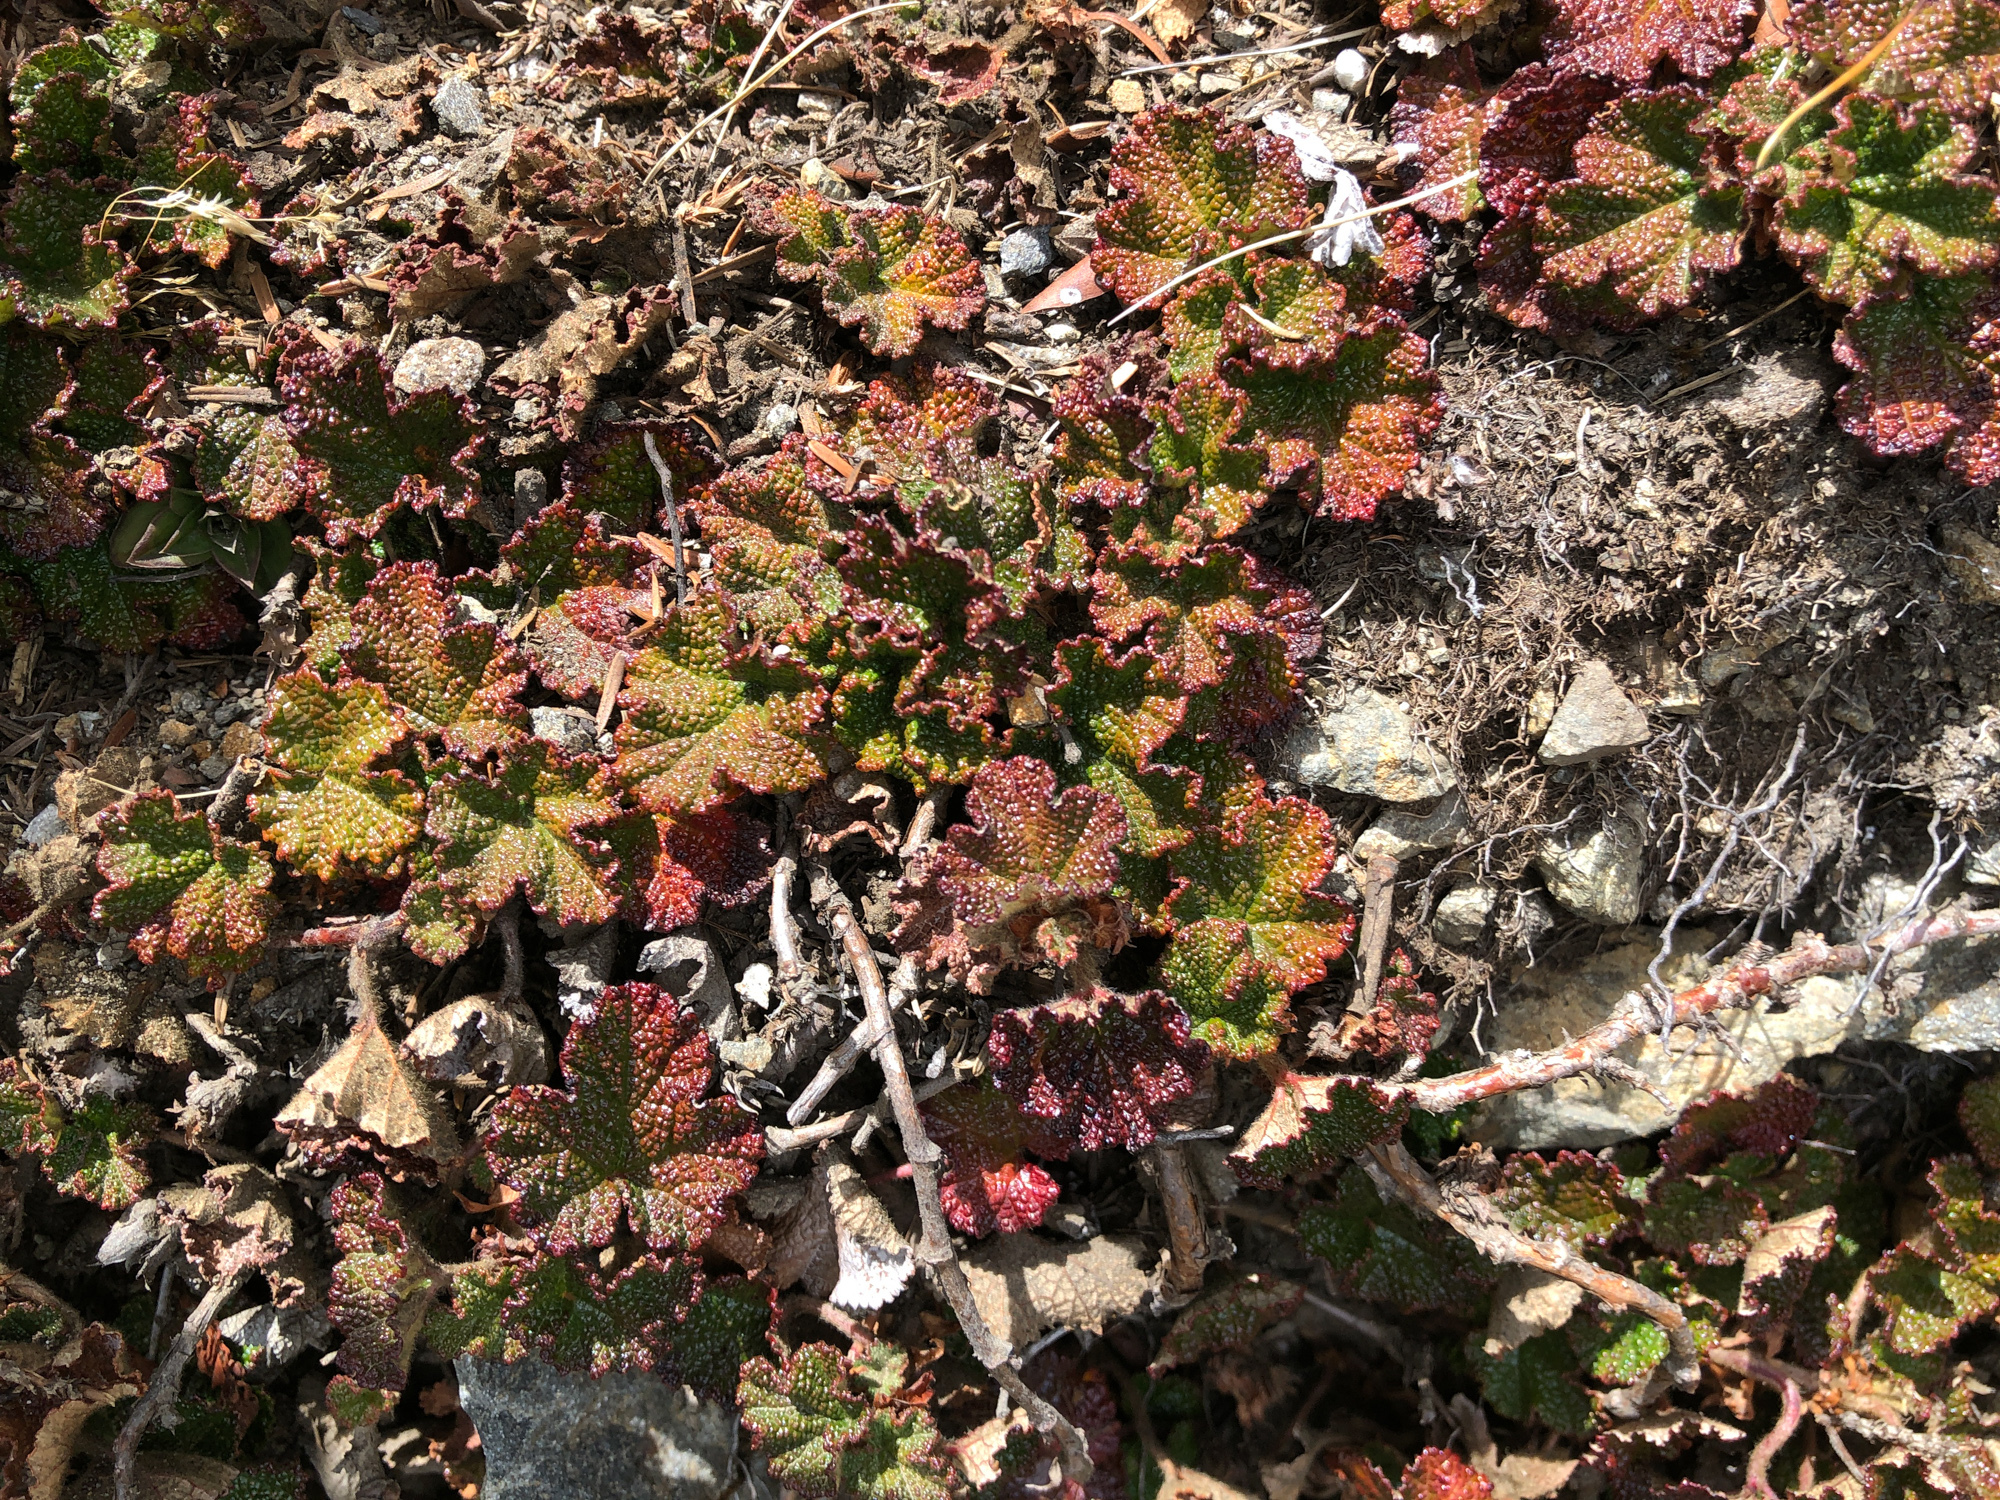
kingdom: Plantae
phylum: Tracheophyta
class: Magnoliopsida
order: Rosales
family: Rosaceae
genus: Rubus
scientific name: Rubus rolfei
